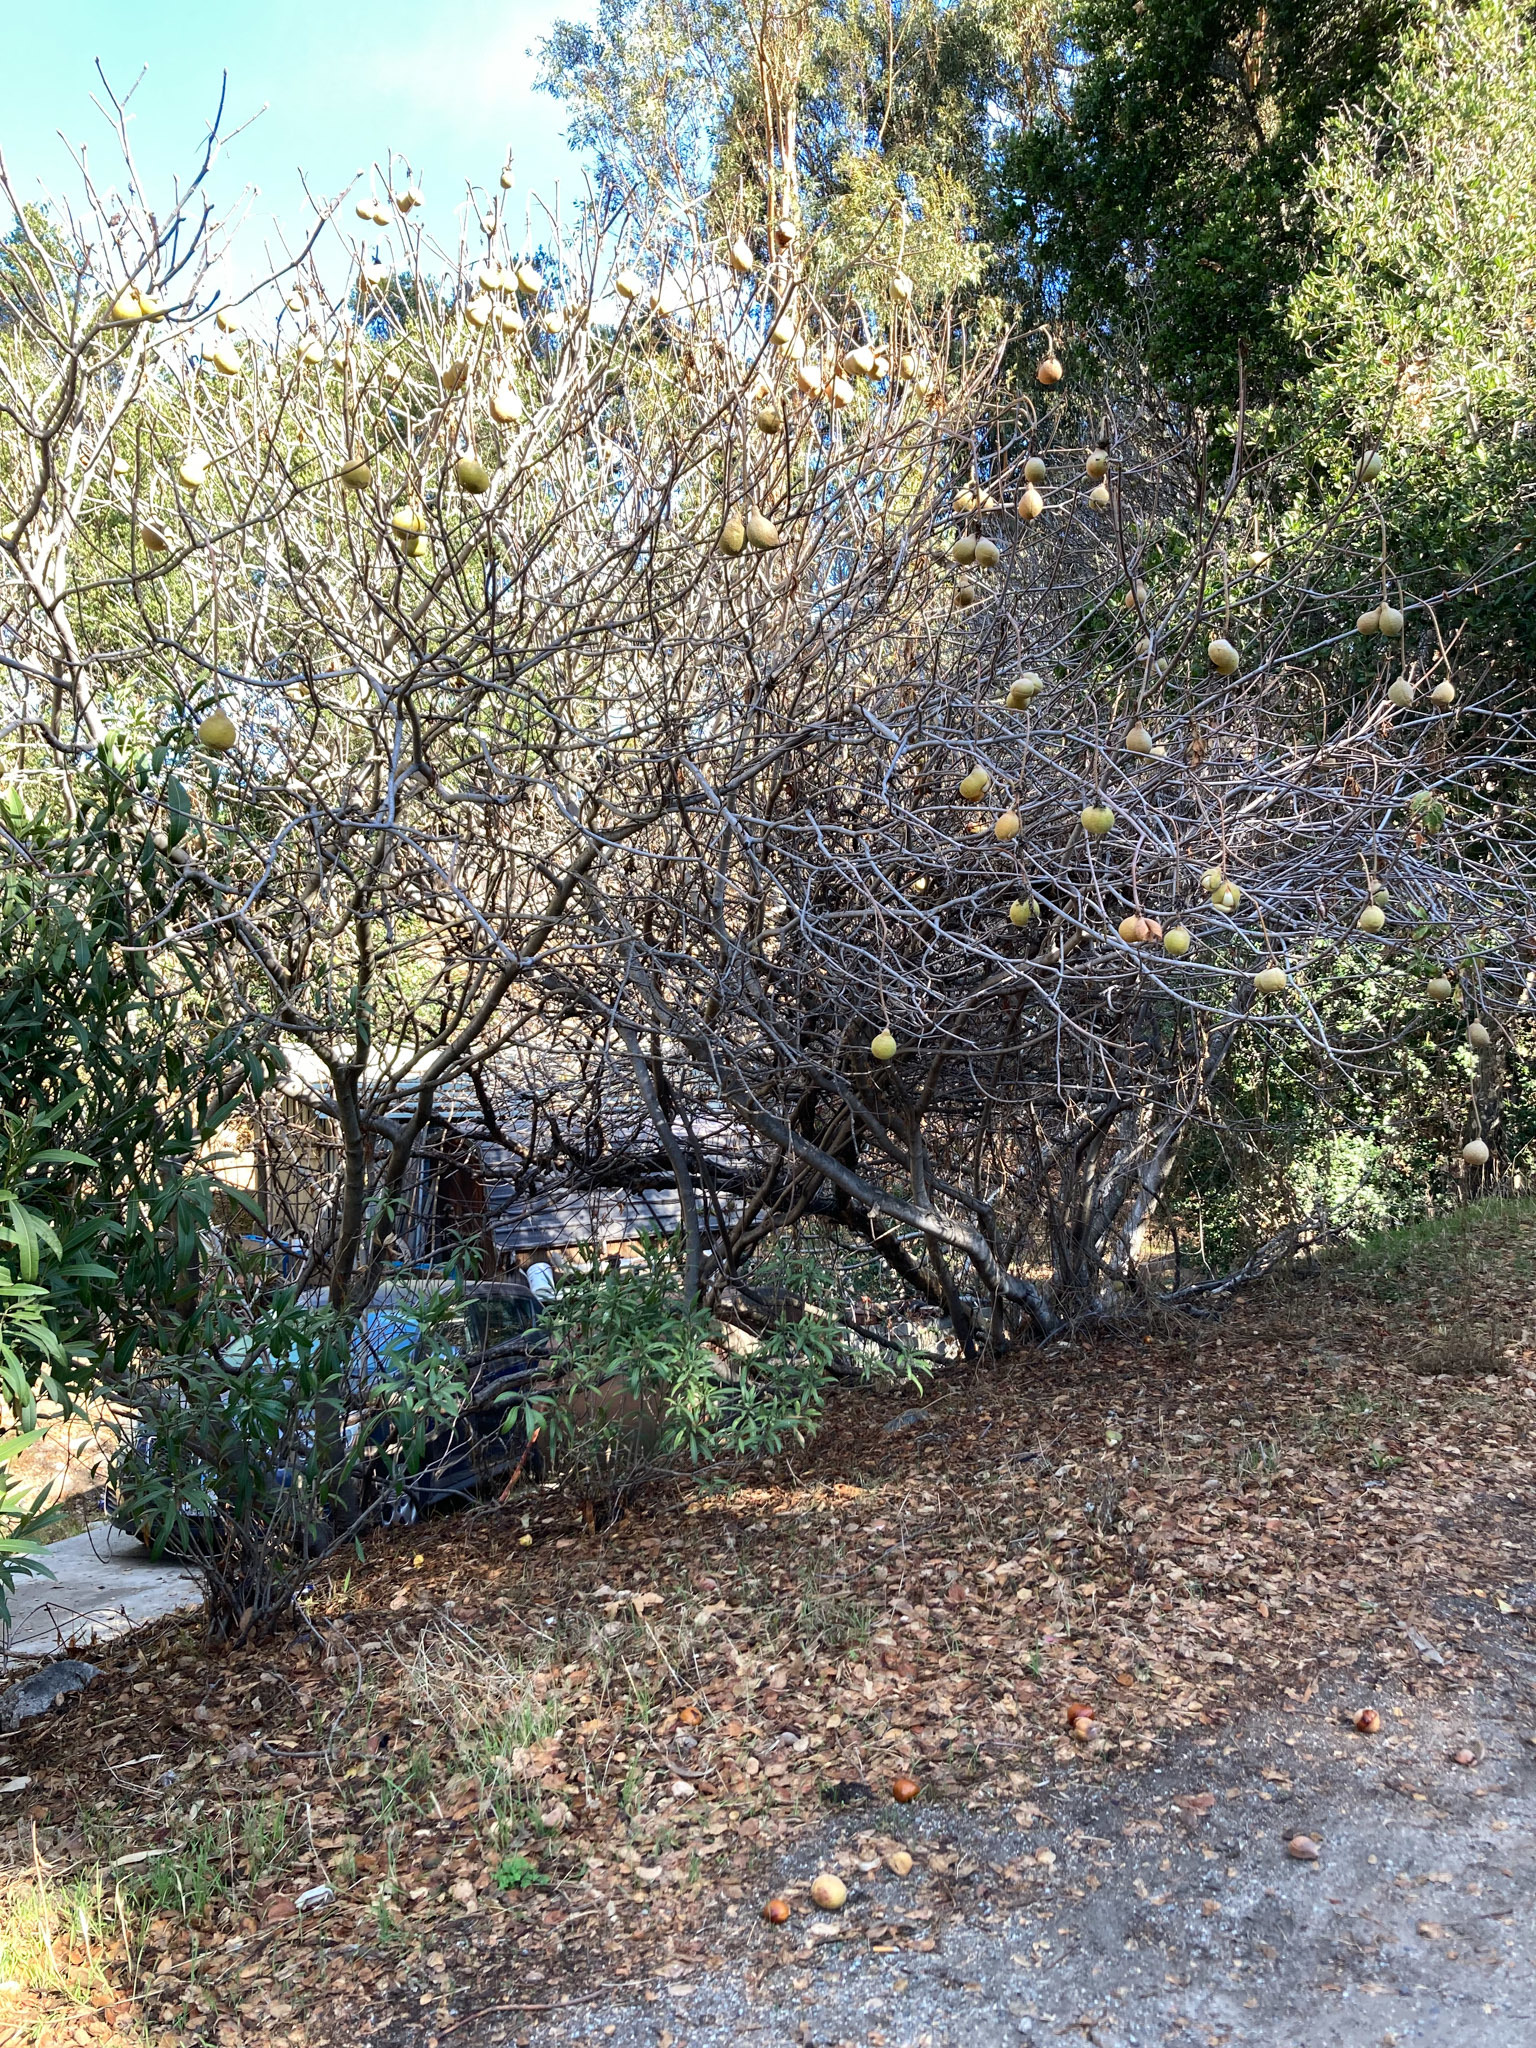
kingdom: Plantae
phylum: Tracheophyta
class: Magnoliopsida
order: Sapindales
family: Sapindaceae
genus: Aesculus
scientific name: Aesculus californica
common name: California buckeye
